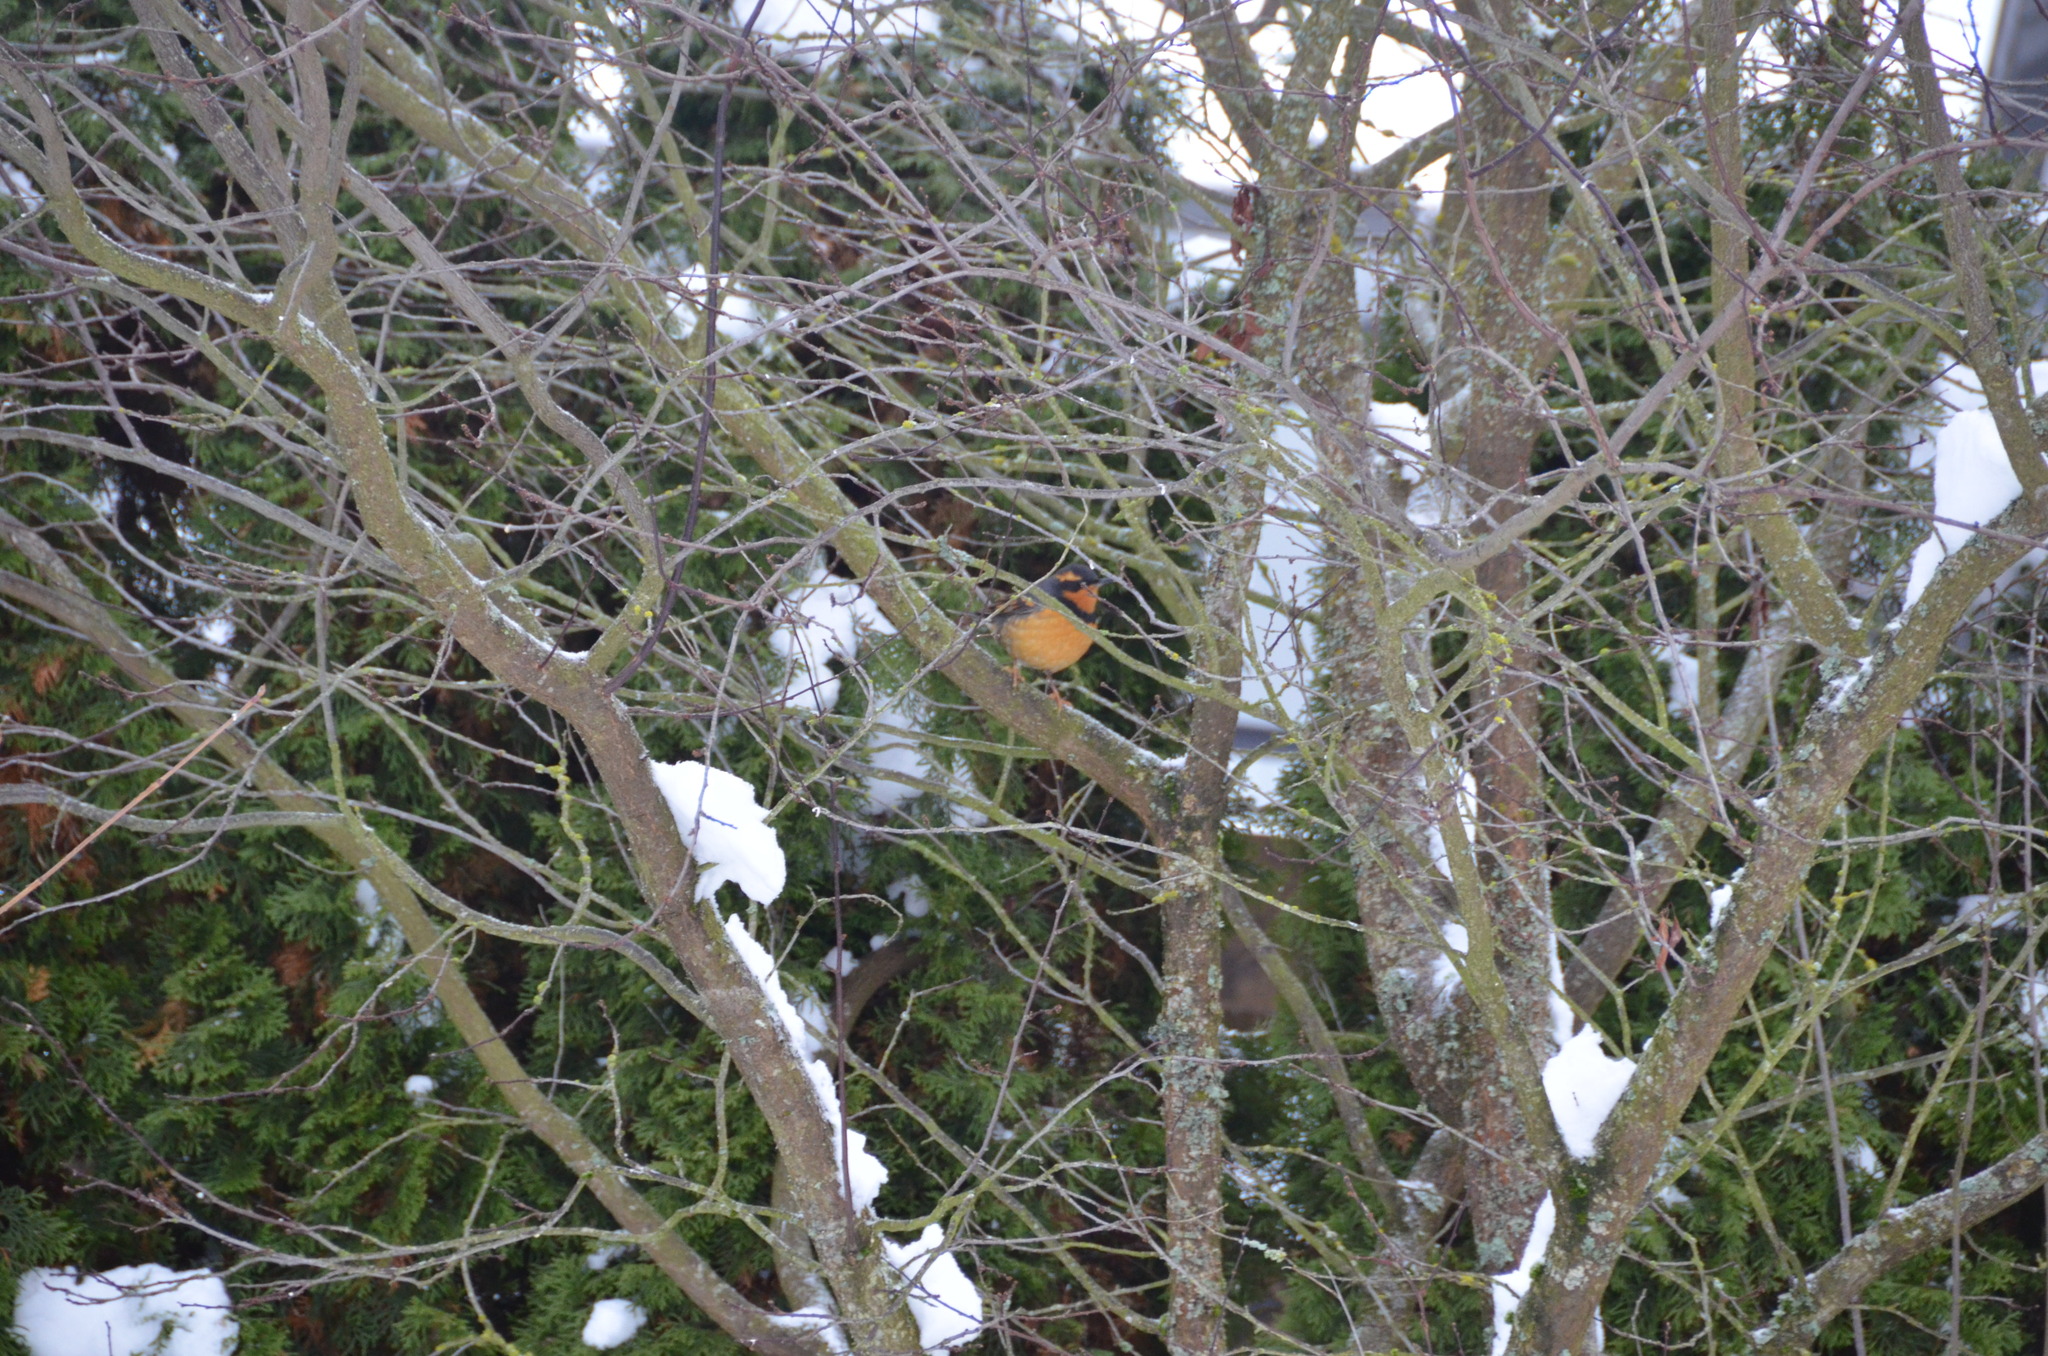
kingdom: Animalia
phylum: Chordata
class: Aves
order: Passeriformes
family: Turdidae
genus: Ixoreus
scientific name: Ixoreus naevius
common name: Varied thrush
